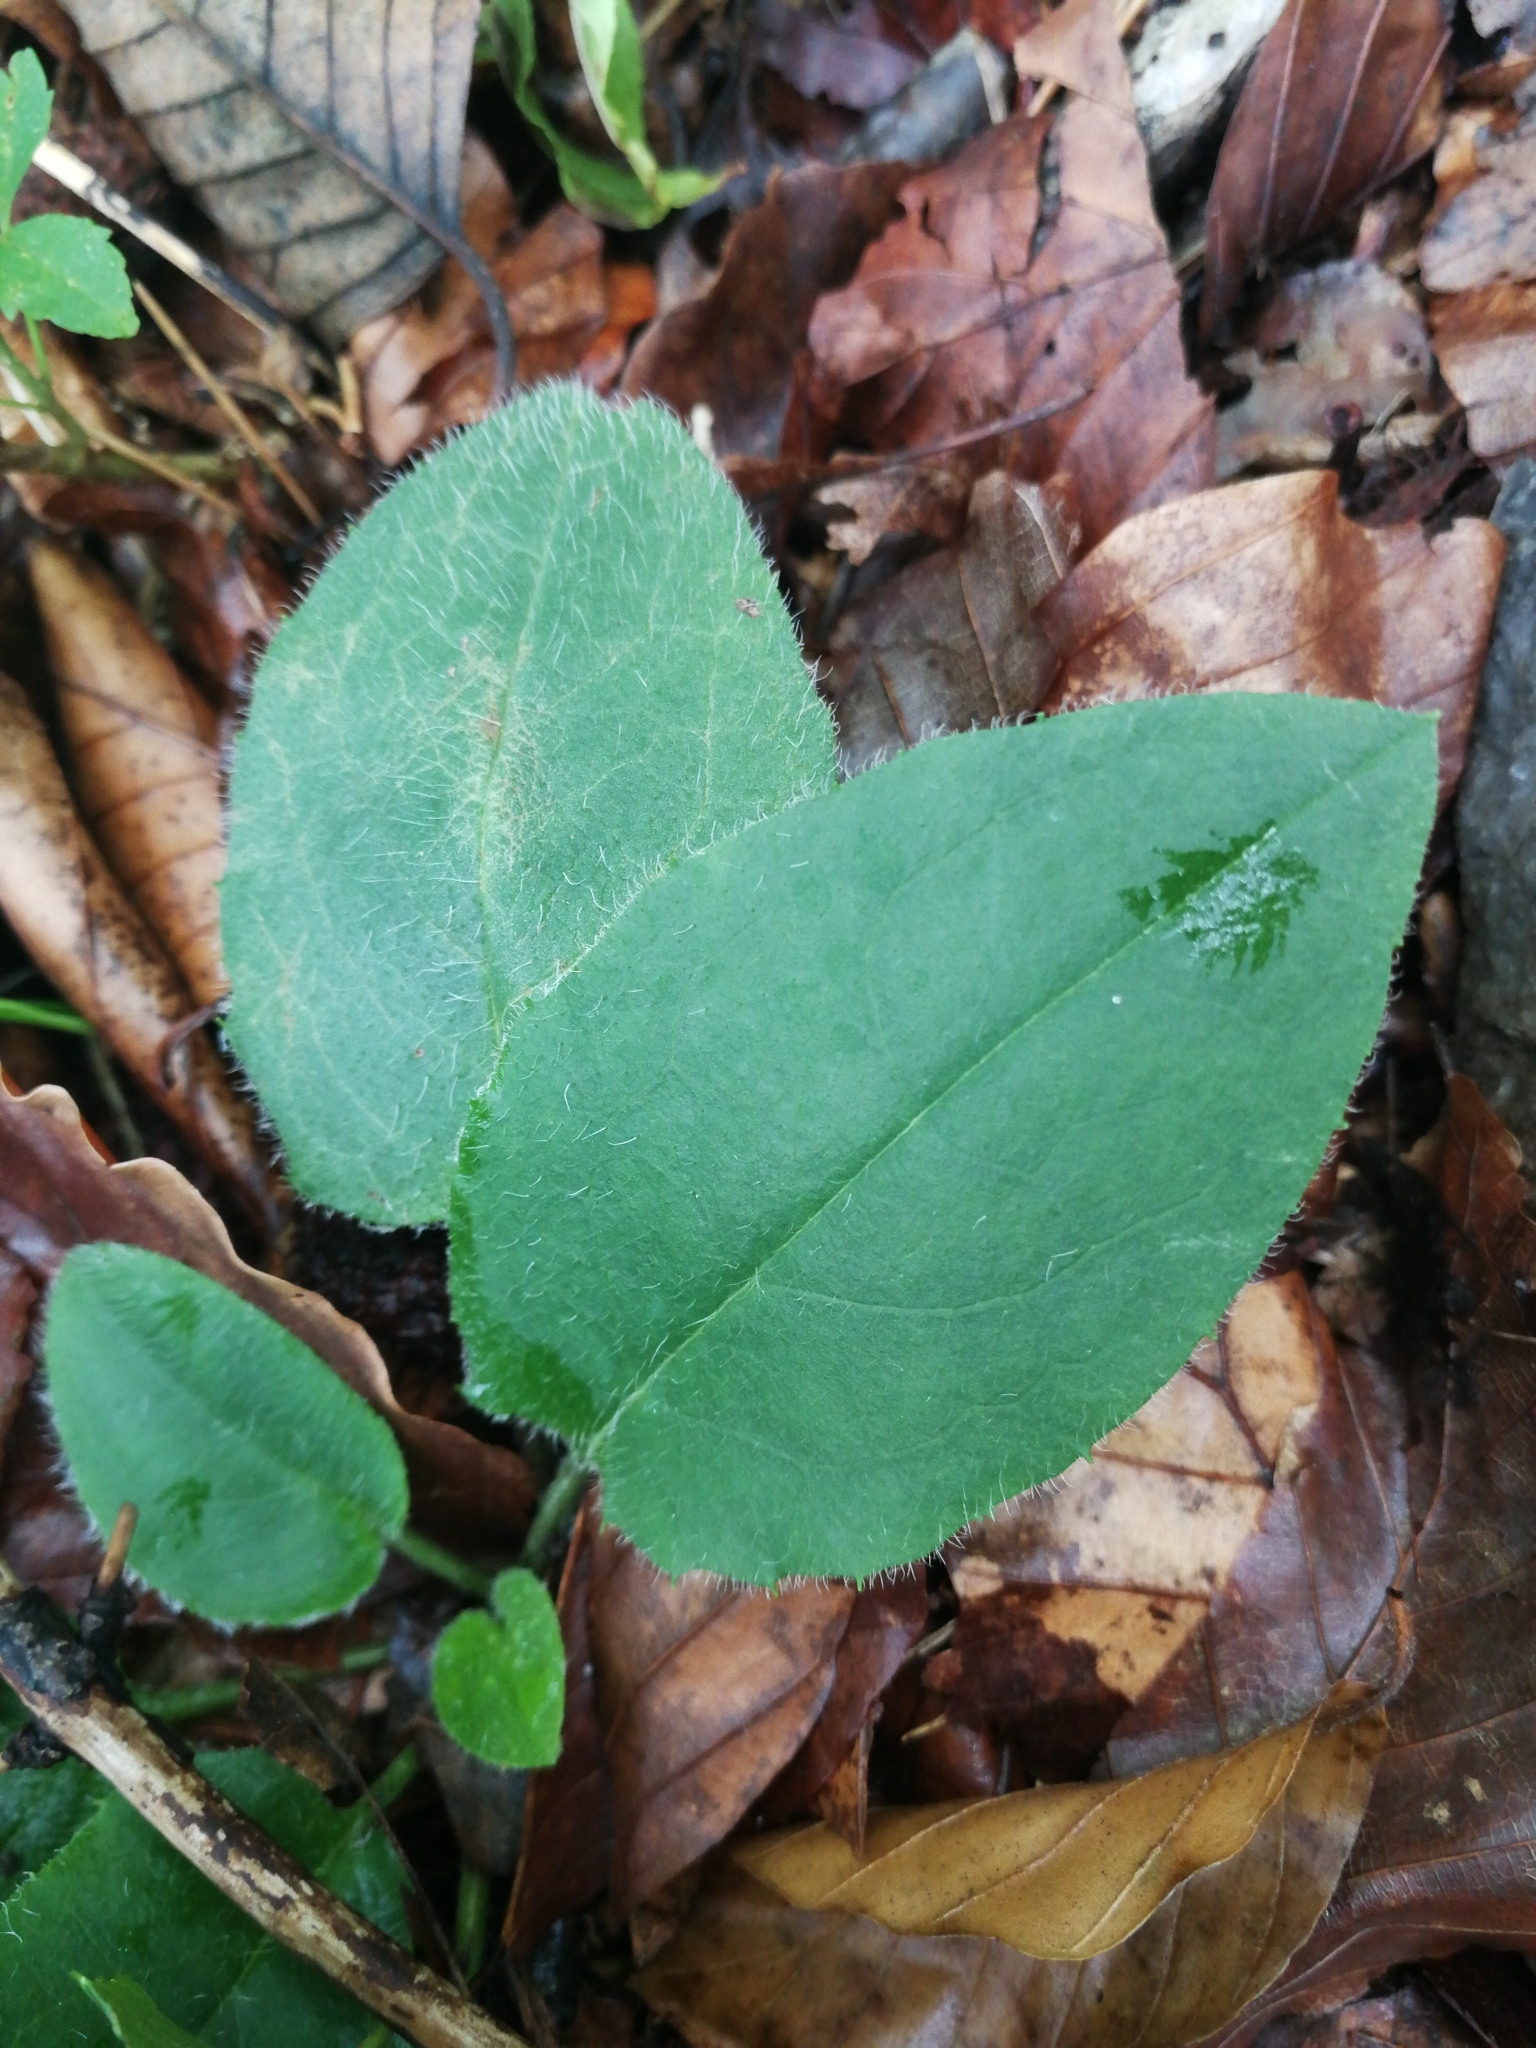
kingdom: Plantae
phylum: Tracheophyta
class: Magnoliopsida
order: Asterales
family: Asteraceae
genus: Hieracium
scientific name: Hieracium murorum
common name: Wall hawkweed
